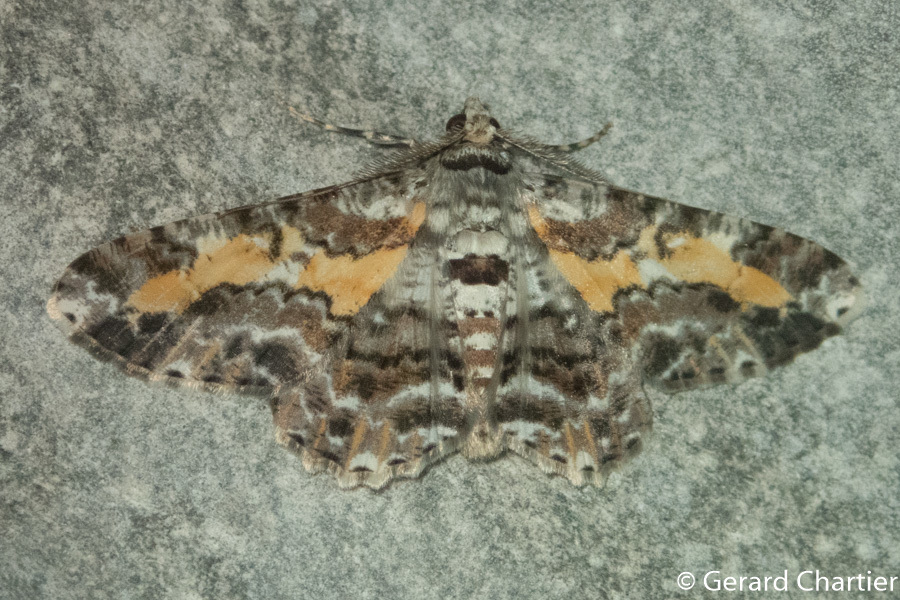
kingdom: Animalia
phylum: Arthropoda
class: Insecta
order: Lepidoptera
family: Geometridae
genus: Cleora
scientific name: Cleora determinata
